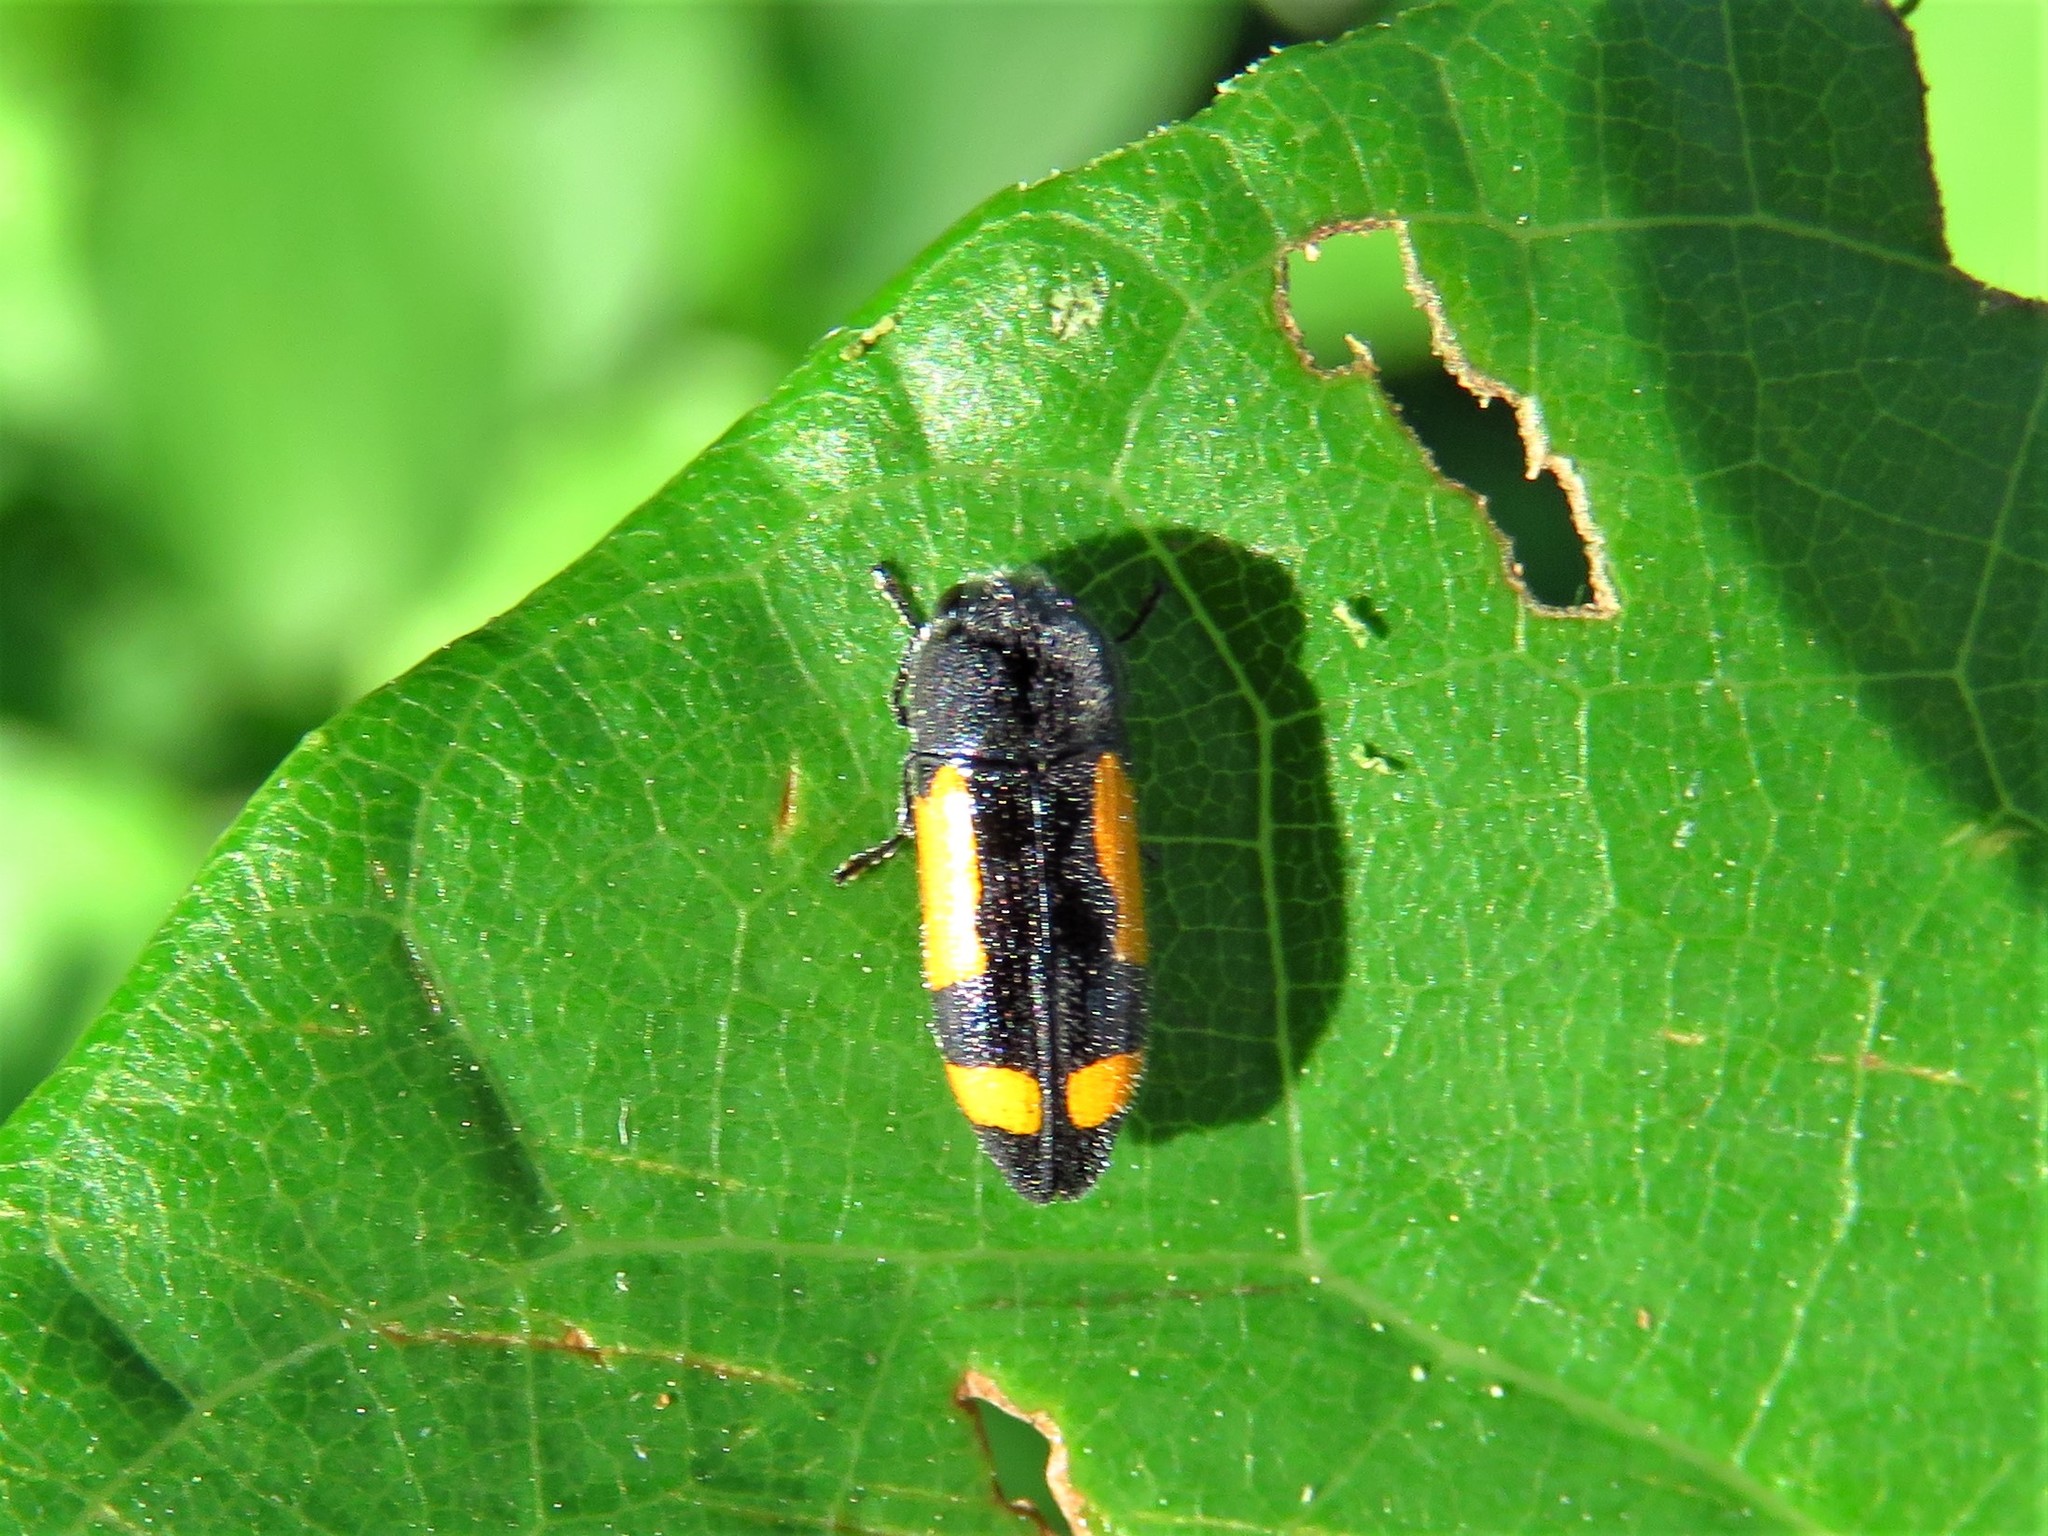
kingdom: Animalia
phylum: Arthropoda
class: Insecta
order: Coleoptera
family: Buprestidae
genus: Ptosima
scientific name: Ptosima gibbicollis
